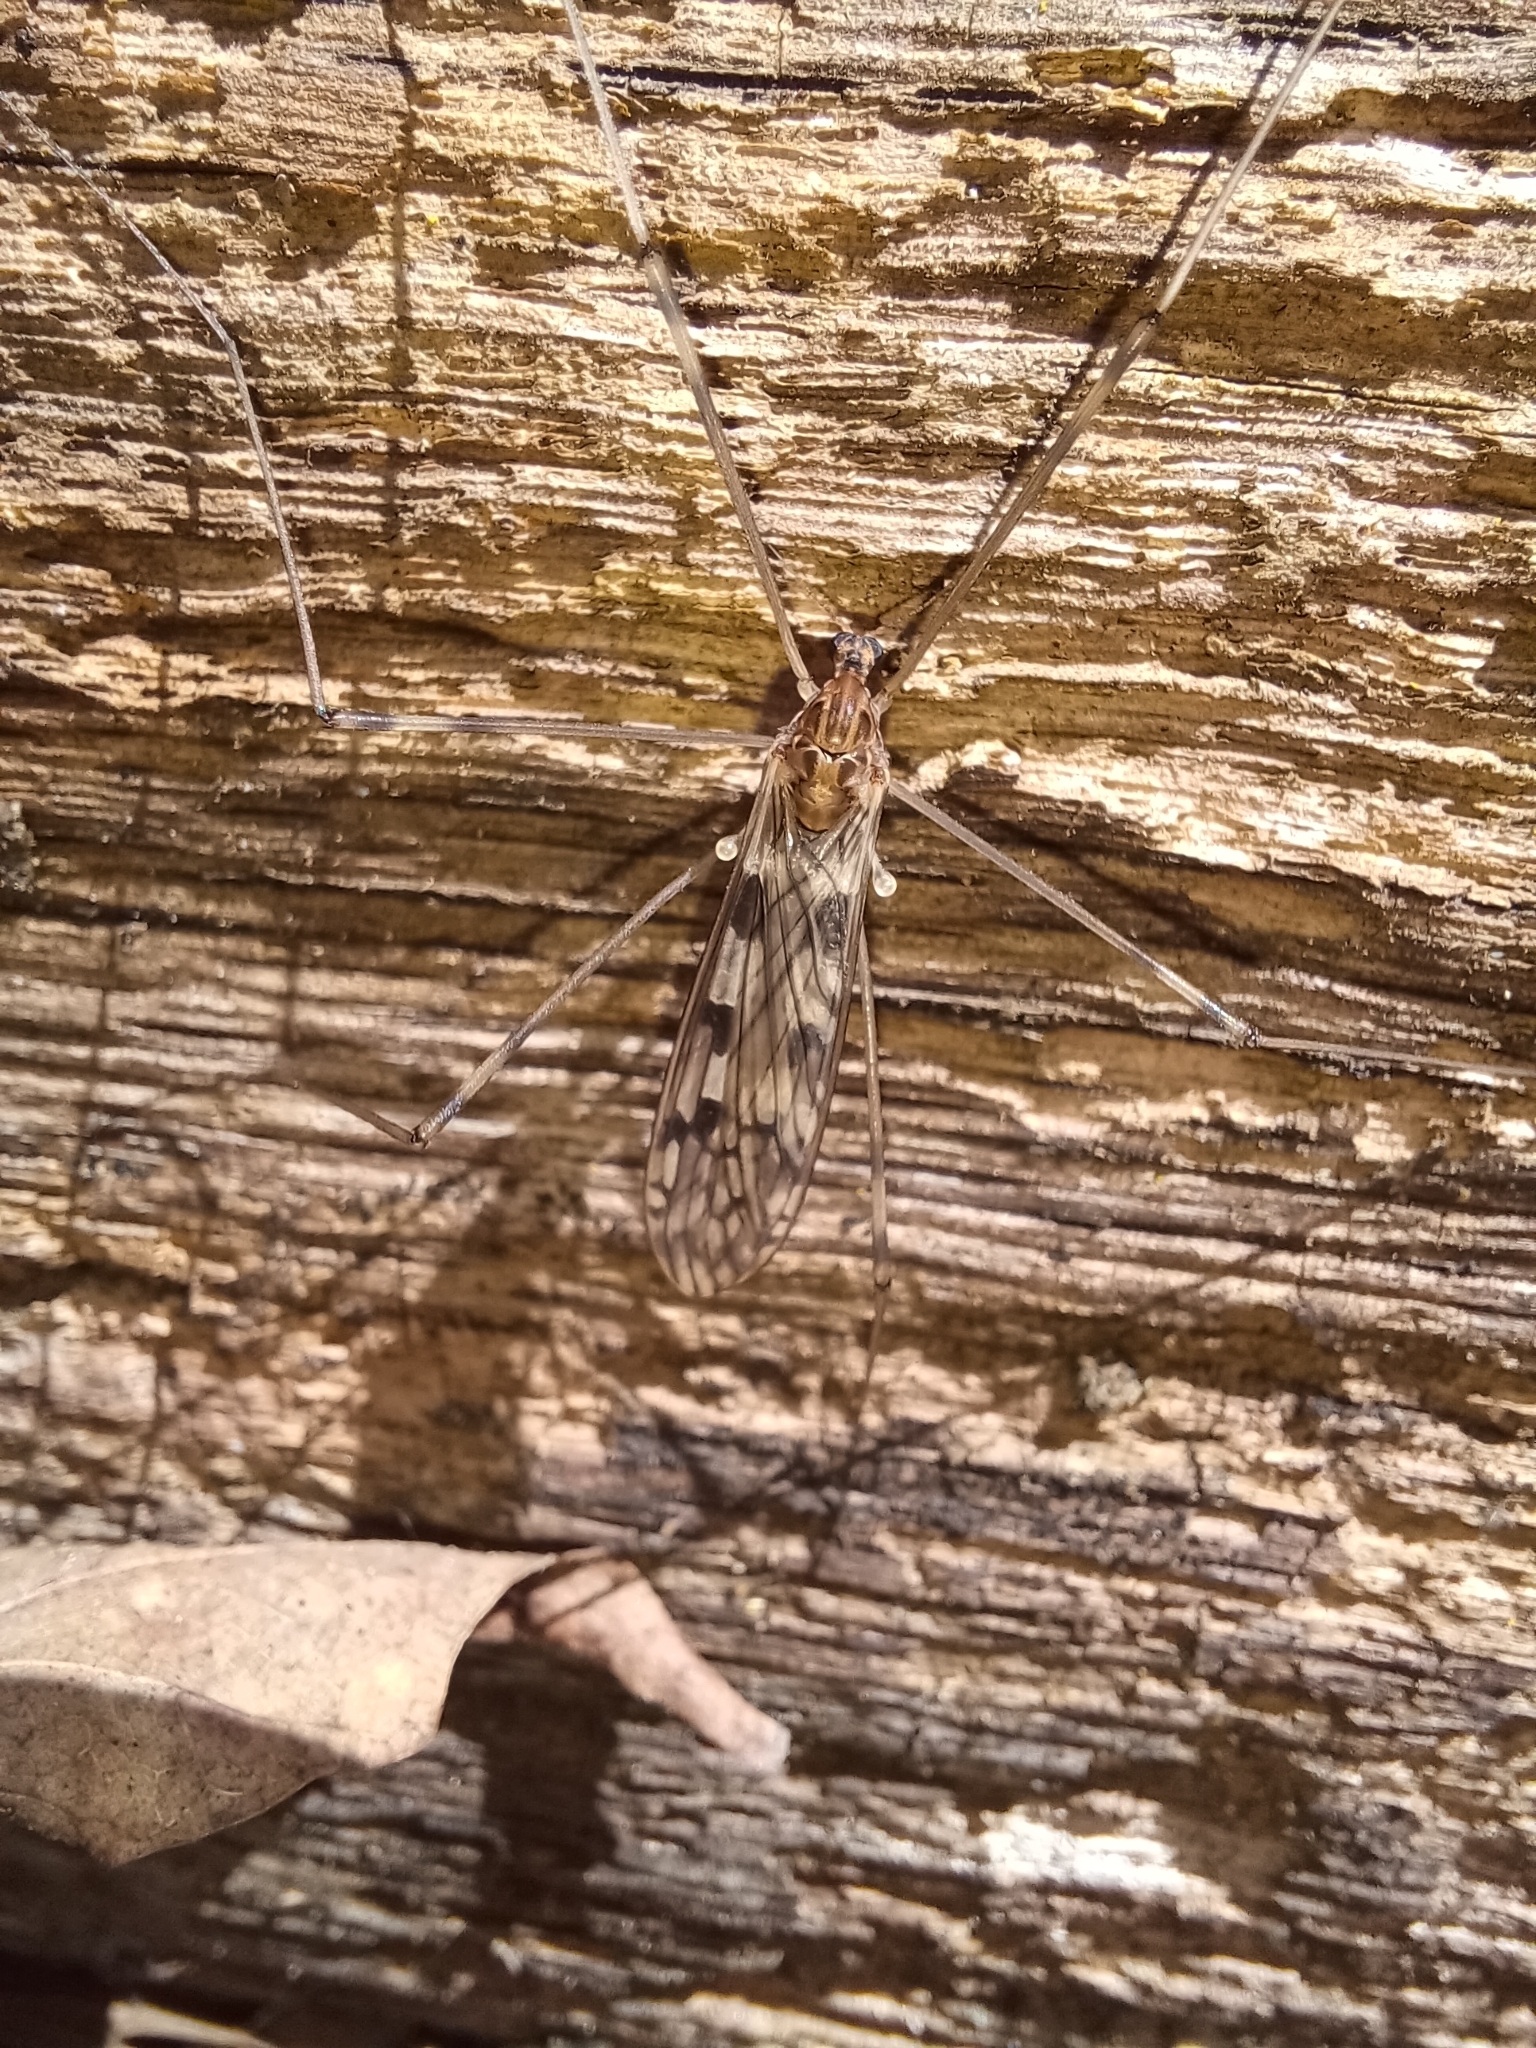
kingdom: Animalia
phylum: Arthropoda
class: Insecta
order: Diptera
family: Limoniidae
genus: Limonia
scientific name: Limonia cinctipes
